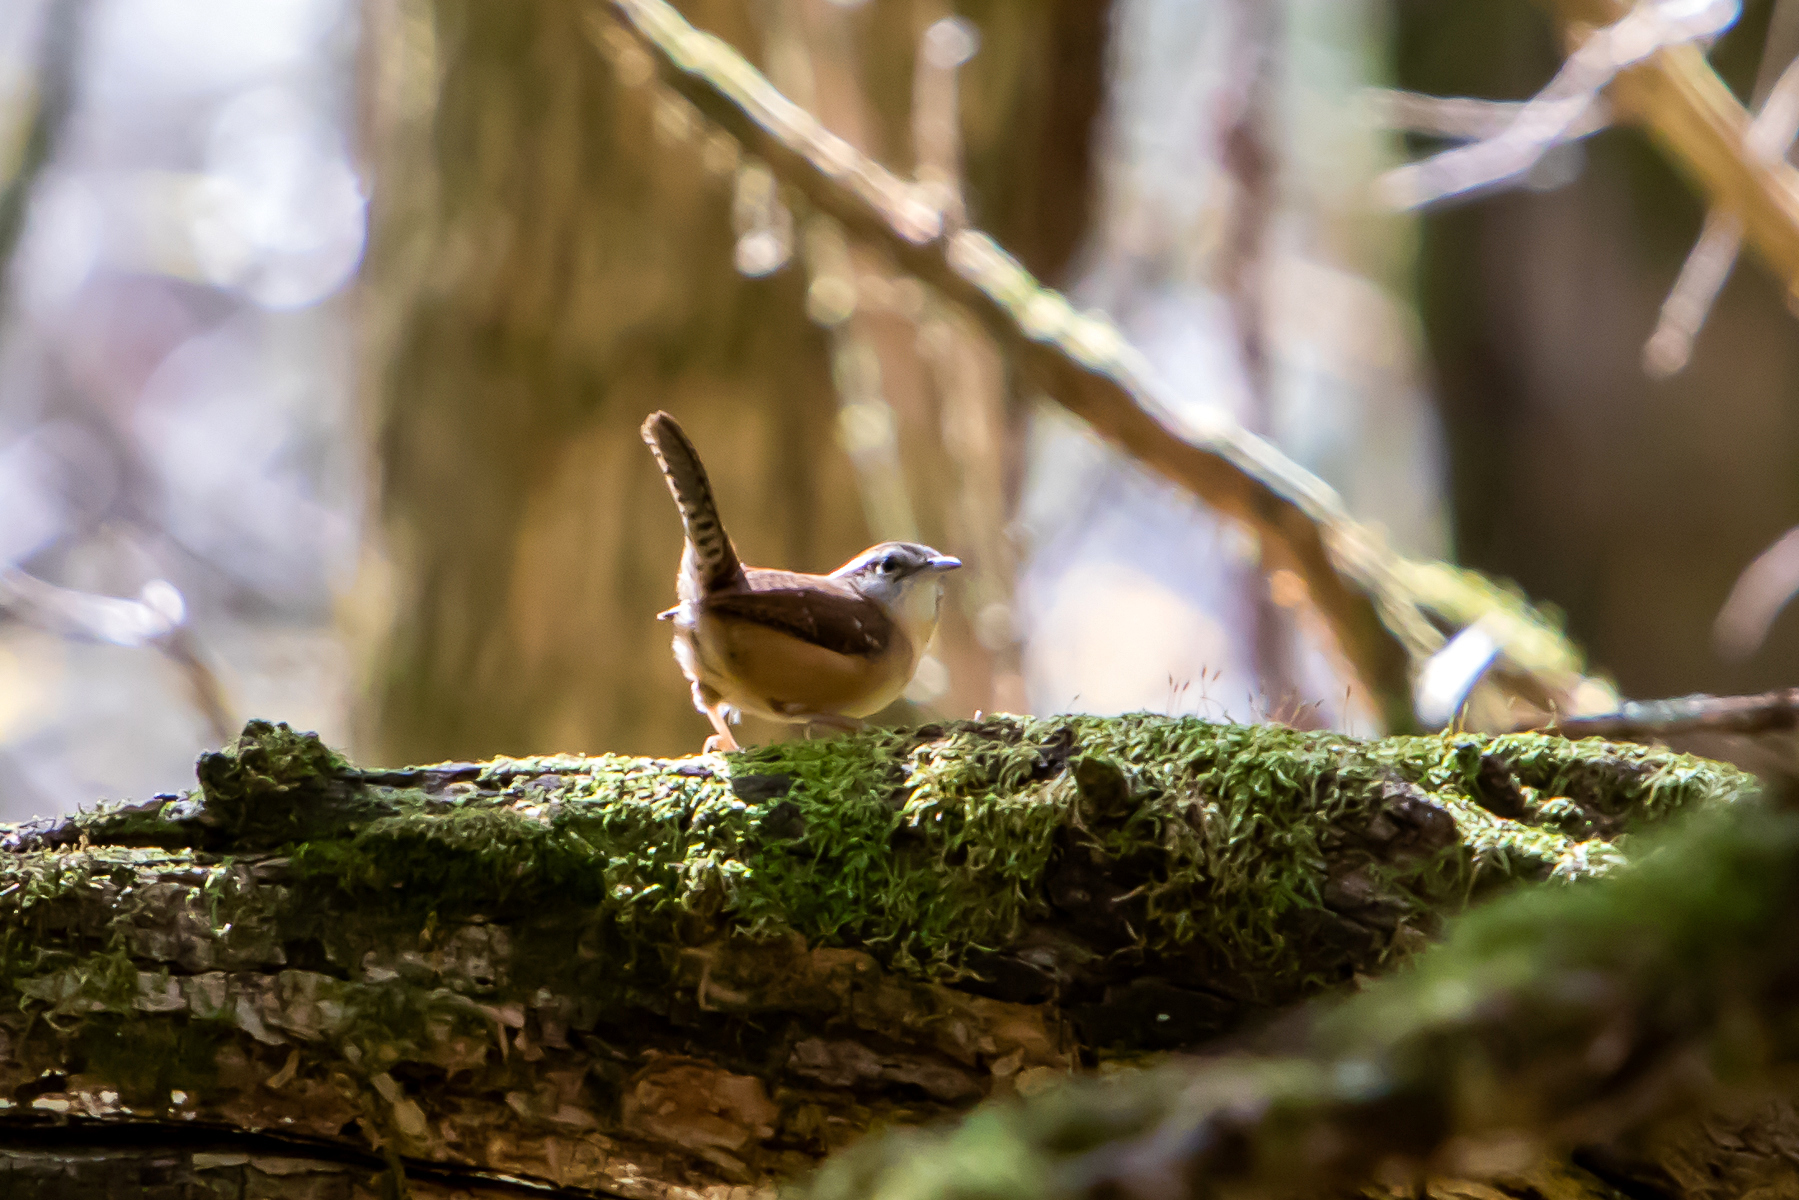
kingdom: Animalia
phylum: Chordata
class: Aves
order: Passeriformes
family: Troglodytidae
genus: Thryothorus
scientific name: Thryothorus ludovicianus
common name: Carolina wren
